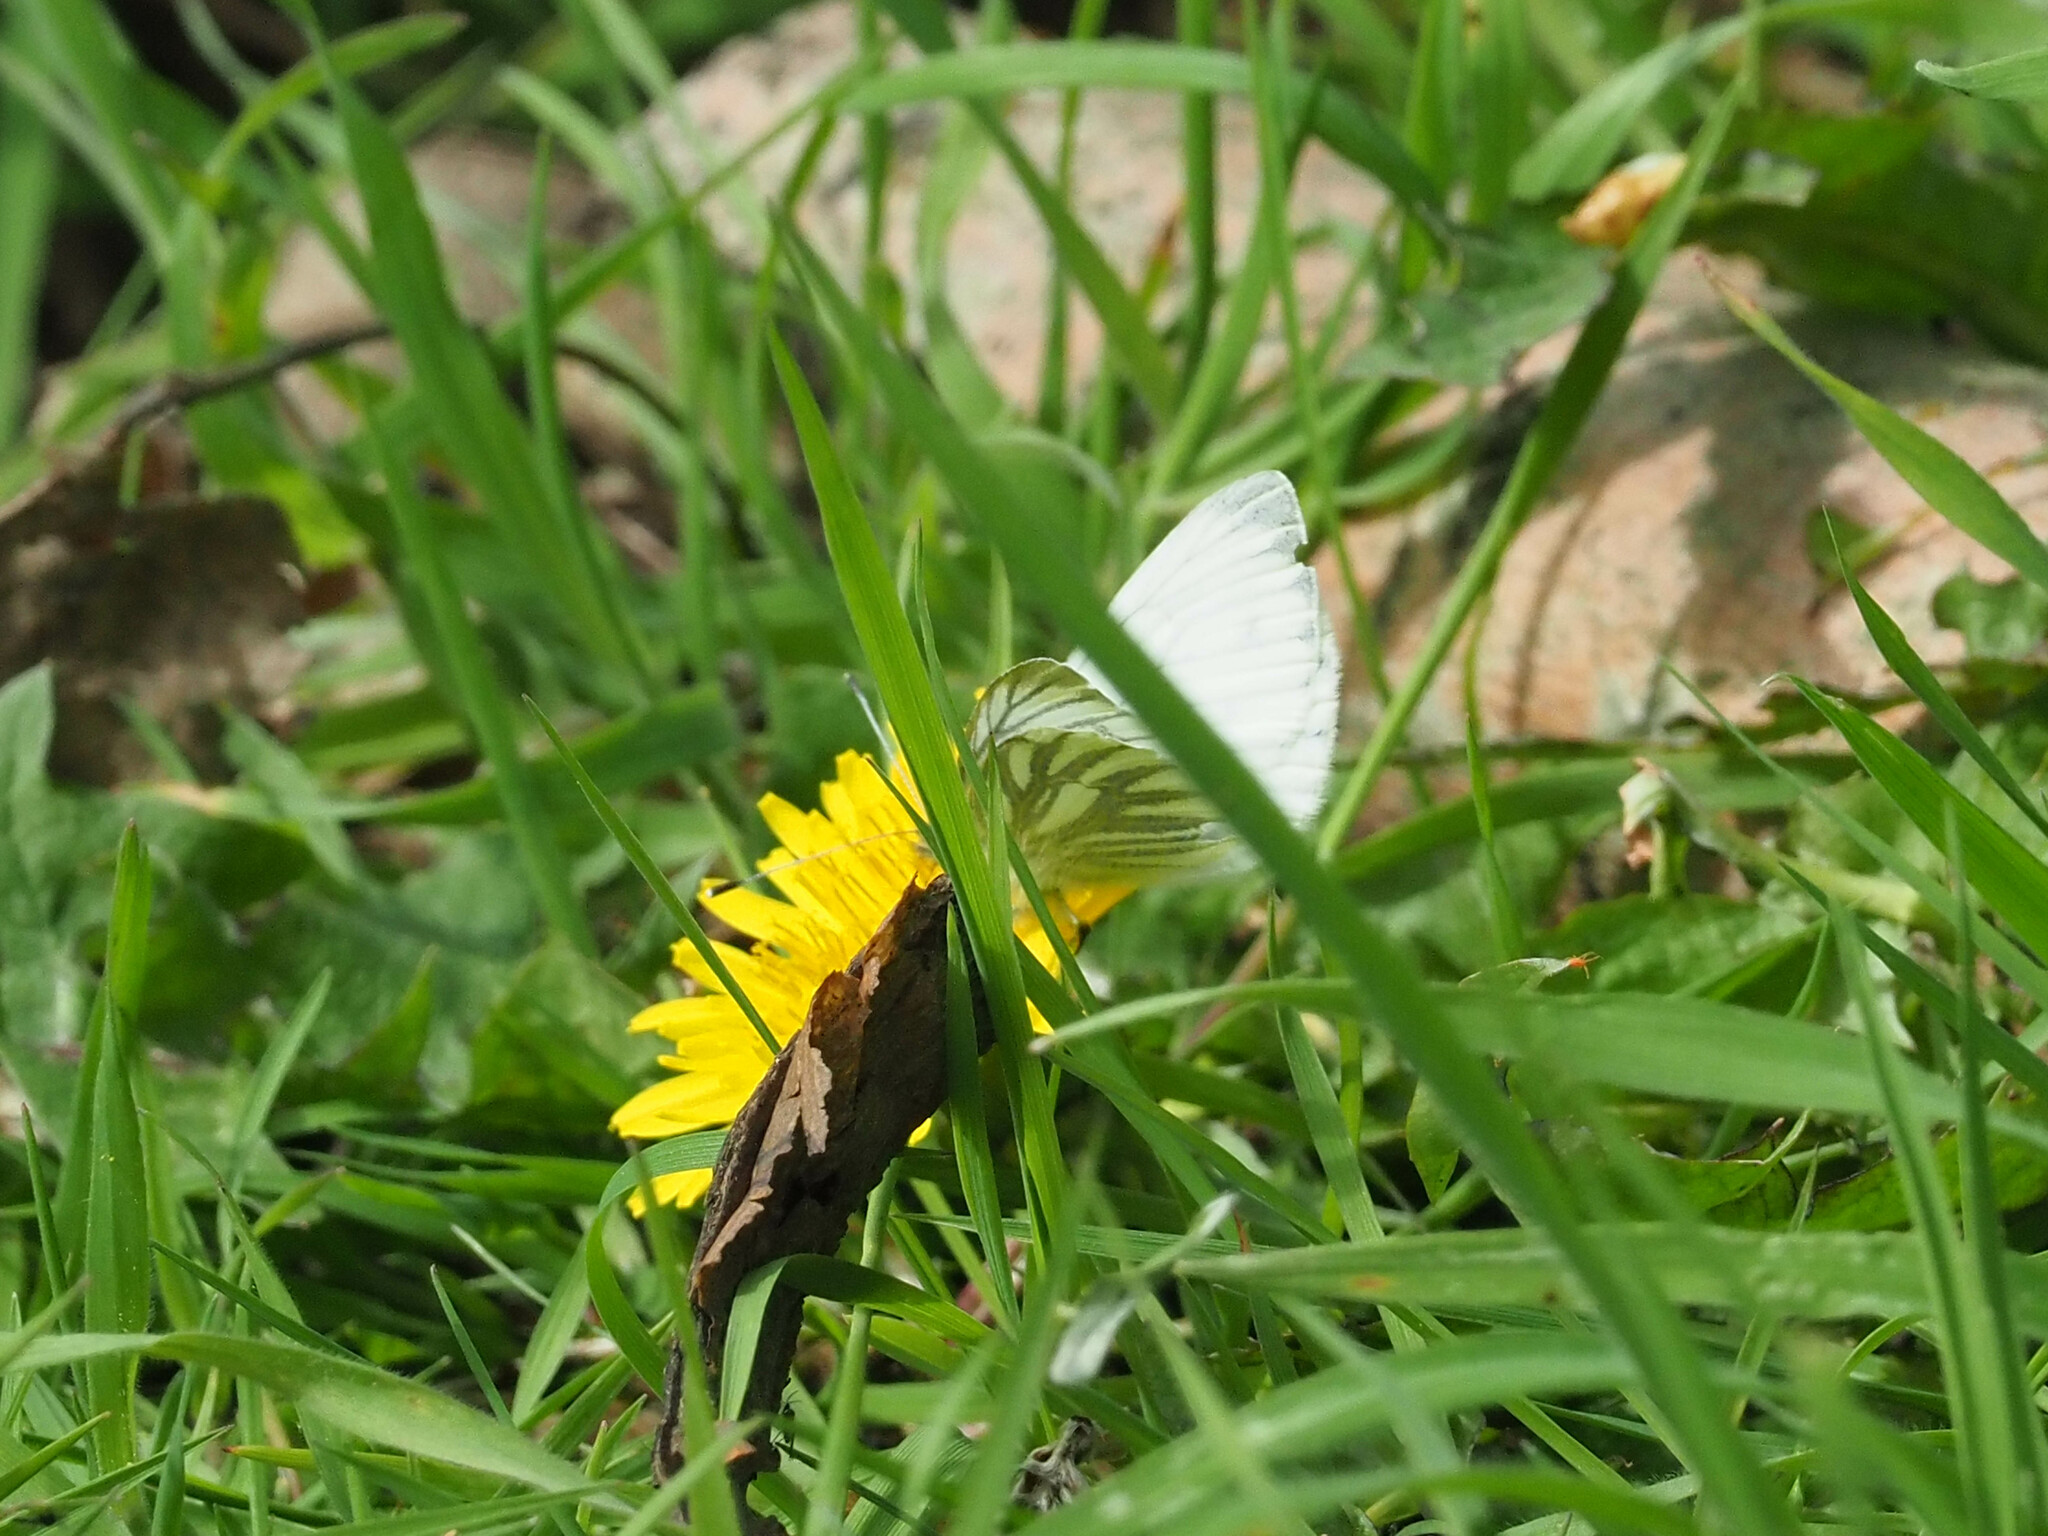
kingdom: Animalia
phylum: Arthropoda
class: Insecta
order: Lepidoptera
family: Pieridae
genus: Pieris
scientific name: Pieris napi
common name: Green-veined white
